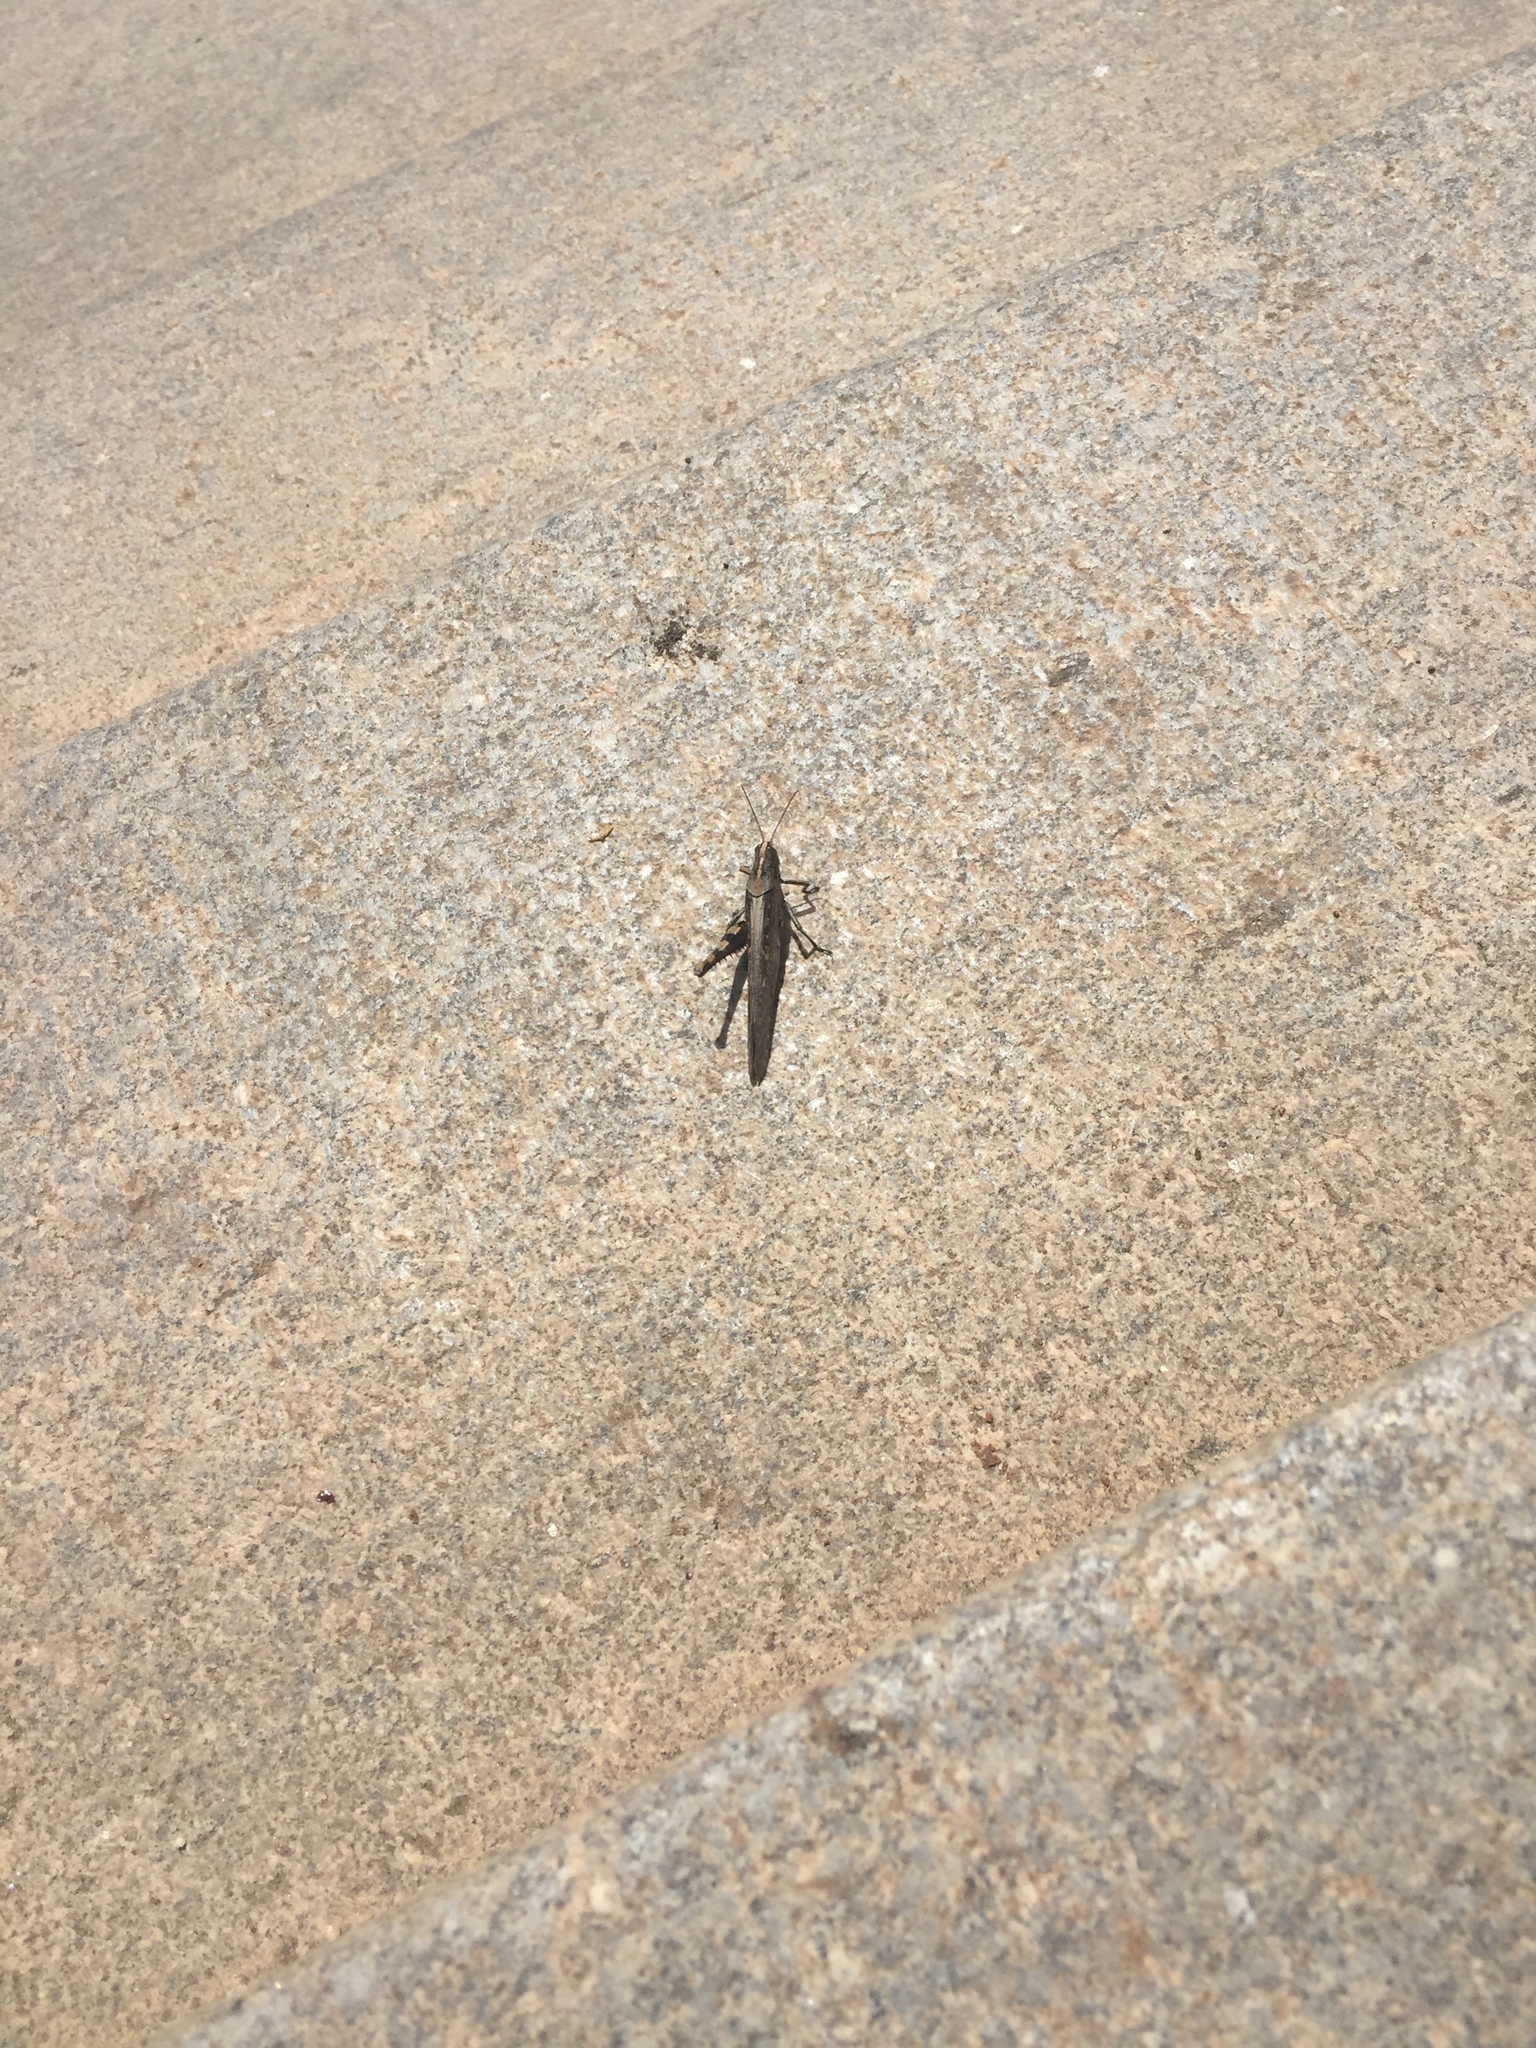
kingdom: Animalia
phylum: Arthropoda
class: Insecta
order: Orthoptera
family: Acrididae
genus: Schistocerca
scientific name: Schistocerca nitens
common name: Vagrant grasshopper
